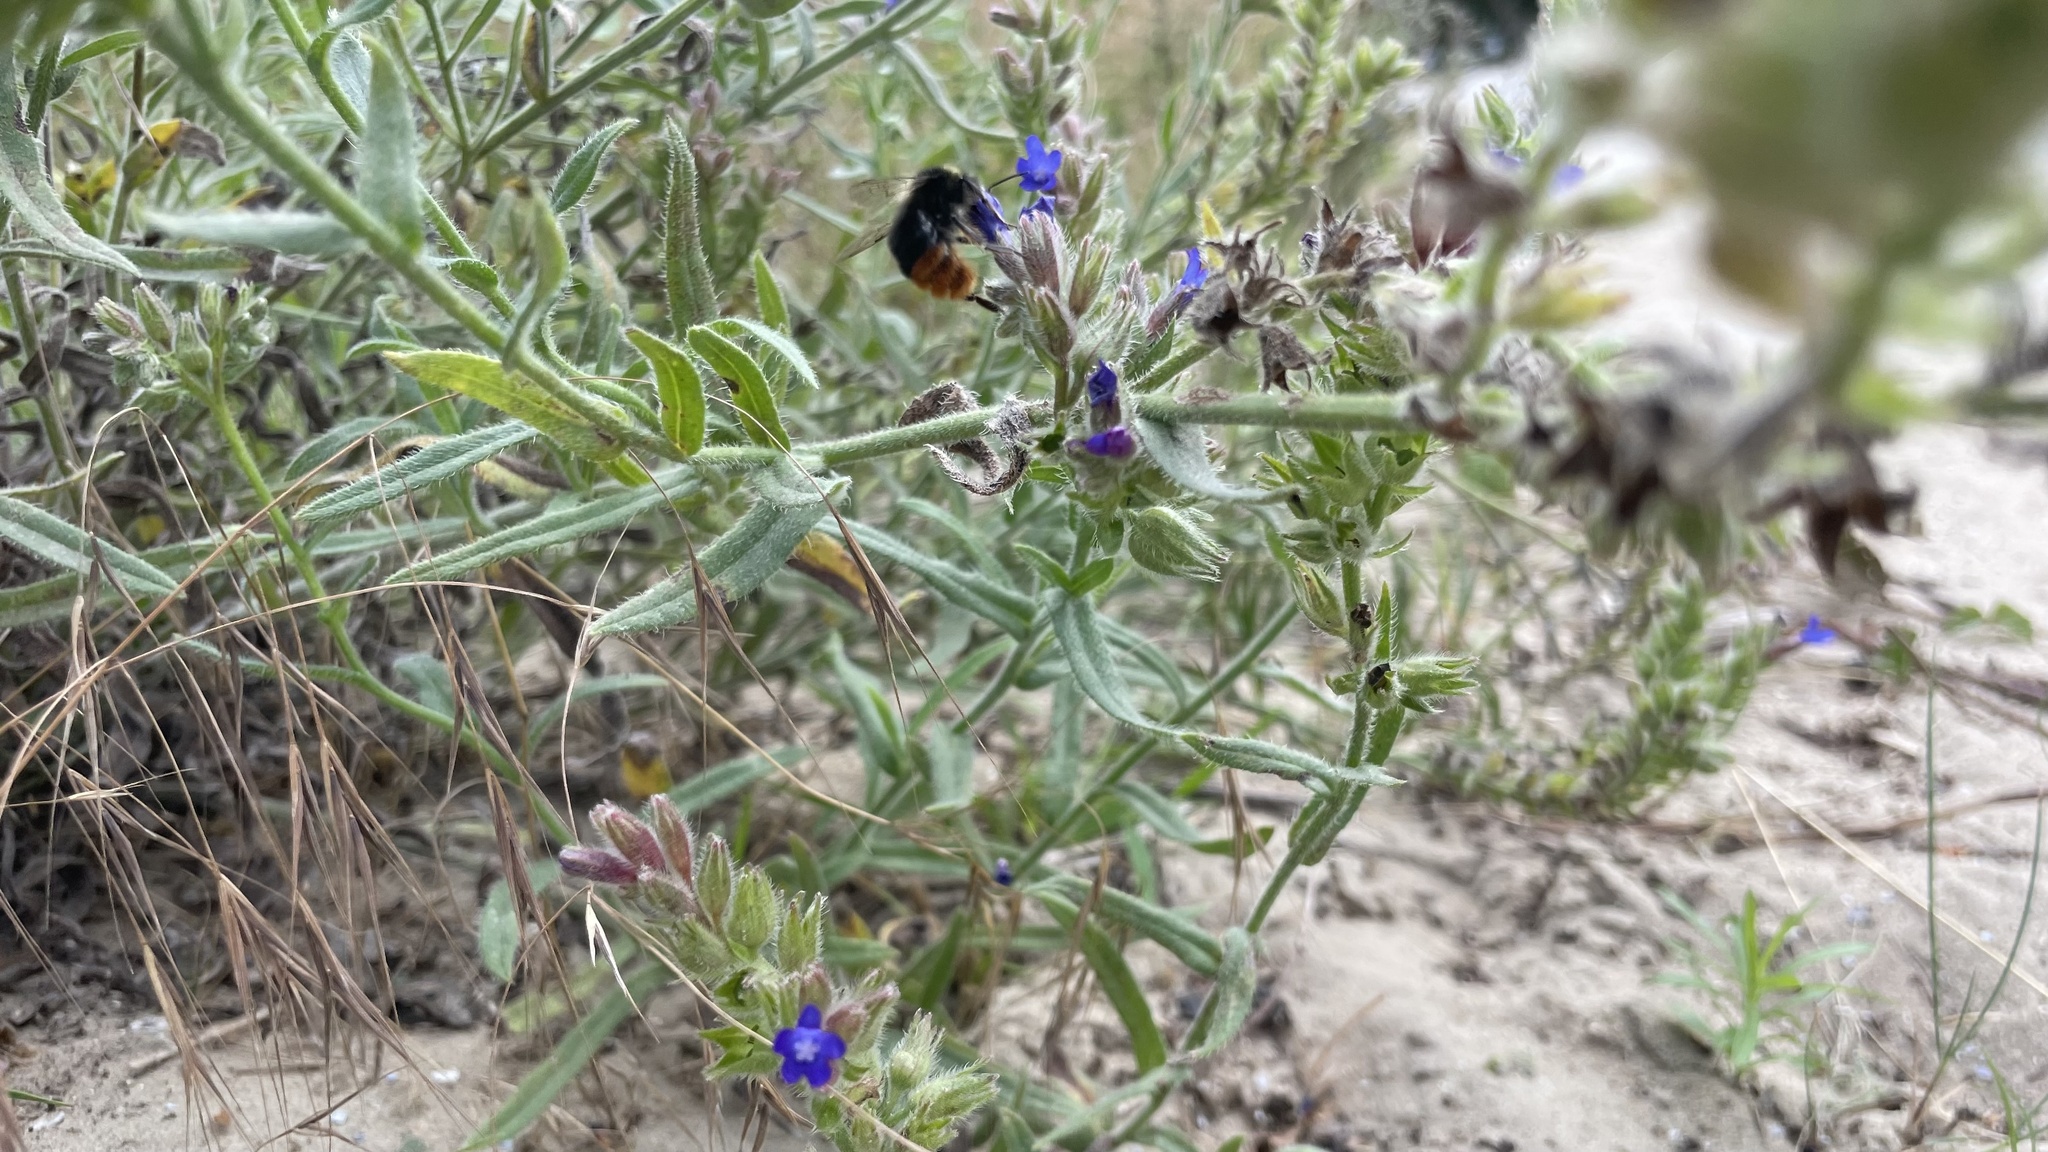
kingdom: Animalia
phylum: Arthropoda
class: Insecta
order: Hymenoptera
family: Apidae
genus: Bombus
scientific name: Bombus lapidarius
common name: Large red-tailed humble-bee
